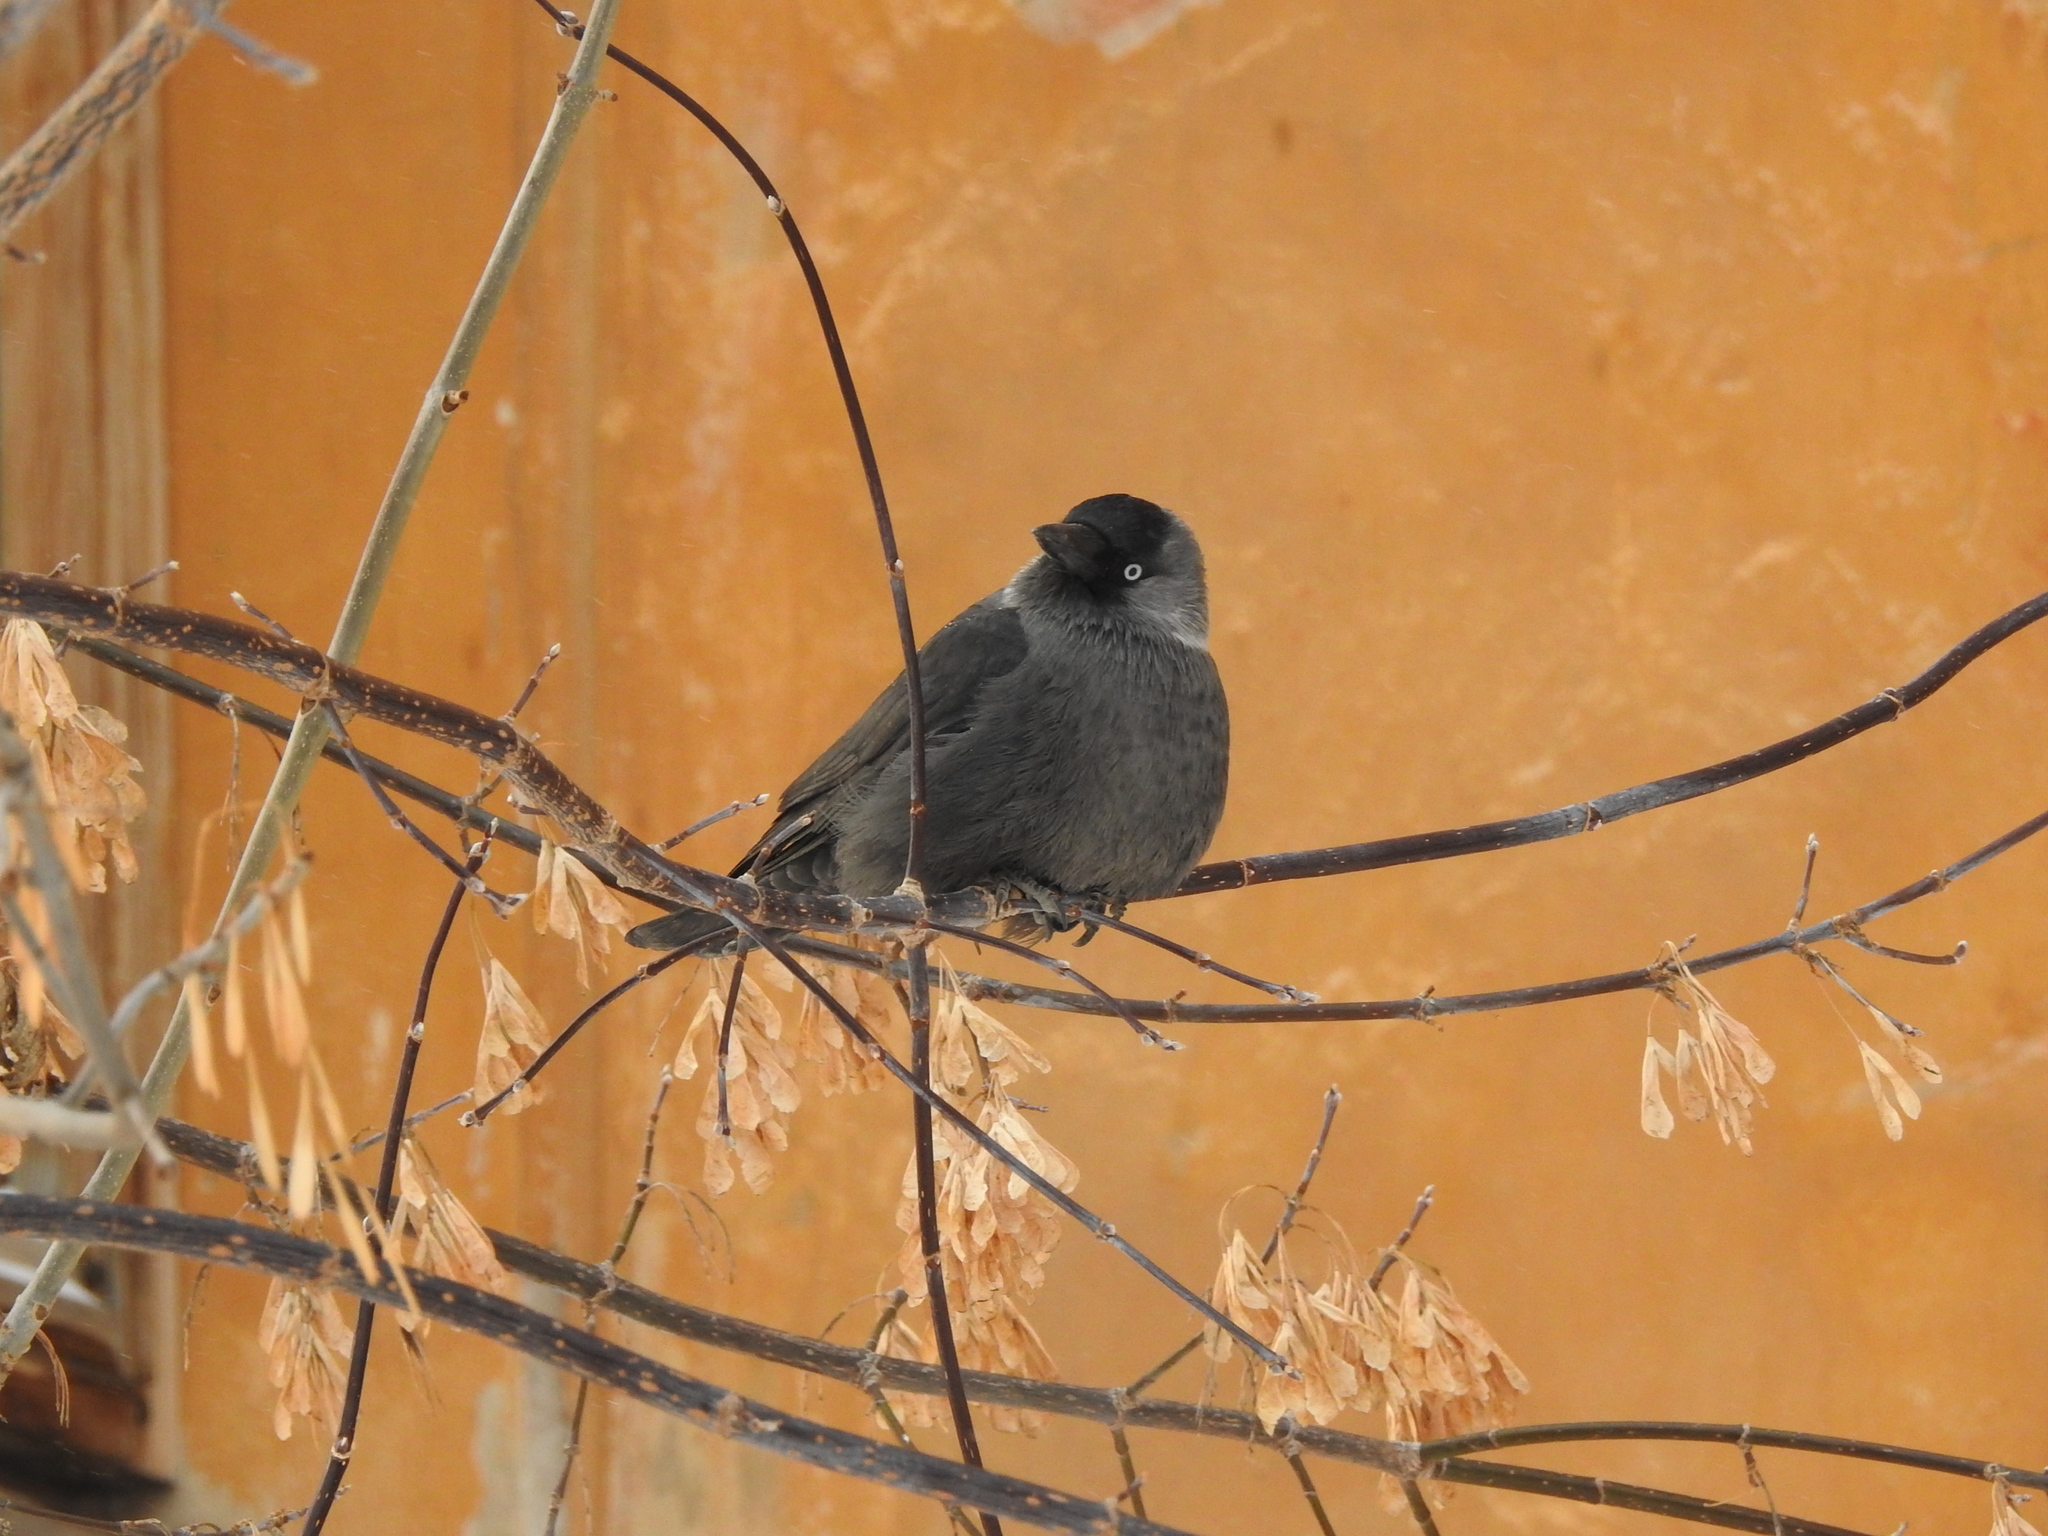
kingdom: Animalia
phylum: Chordata
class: Aves
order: Passeriformes
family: Corvidae
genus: Coloeus
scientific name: Coloeus monedula
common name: Western jackdaw
